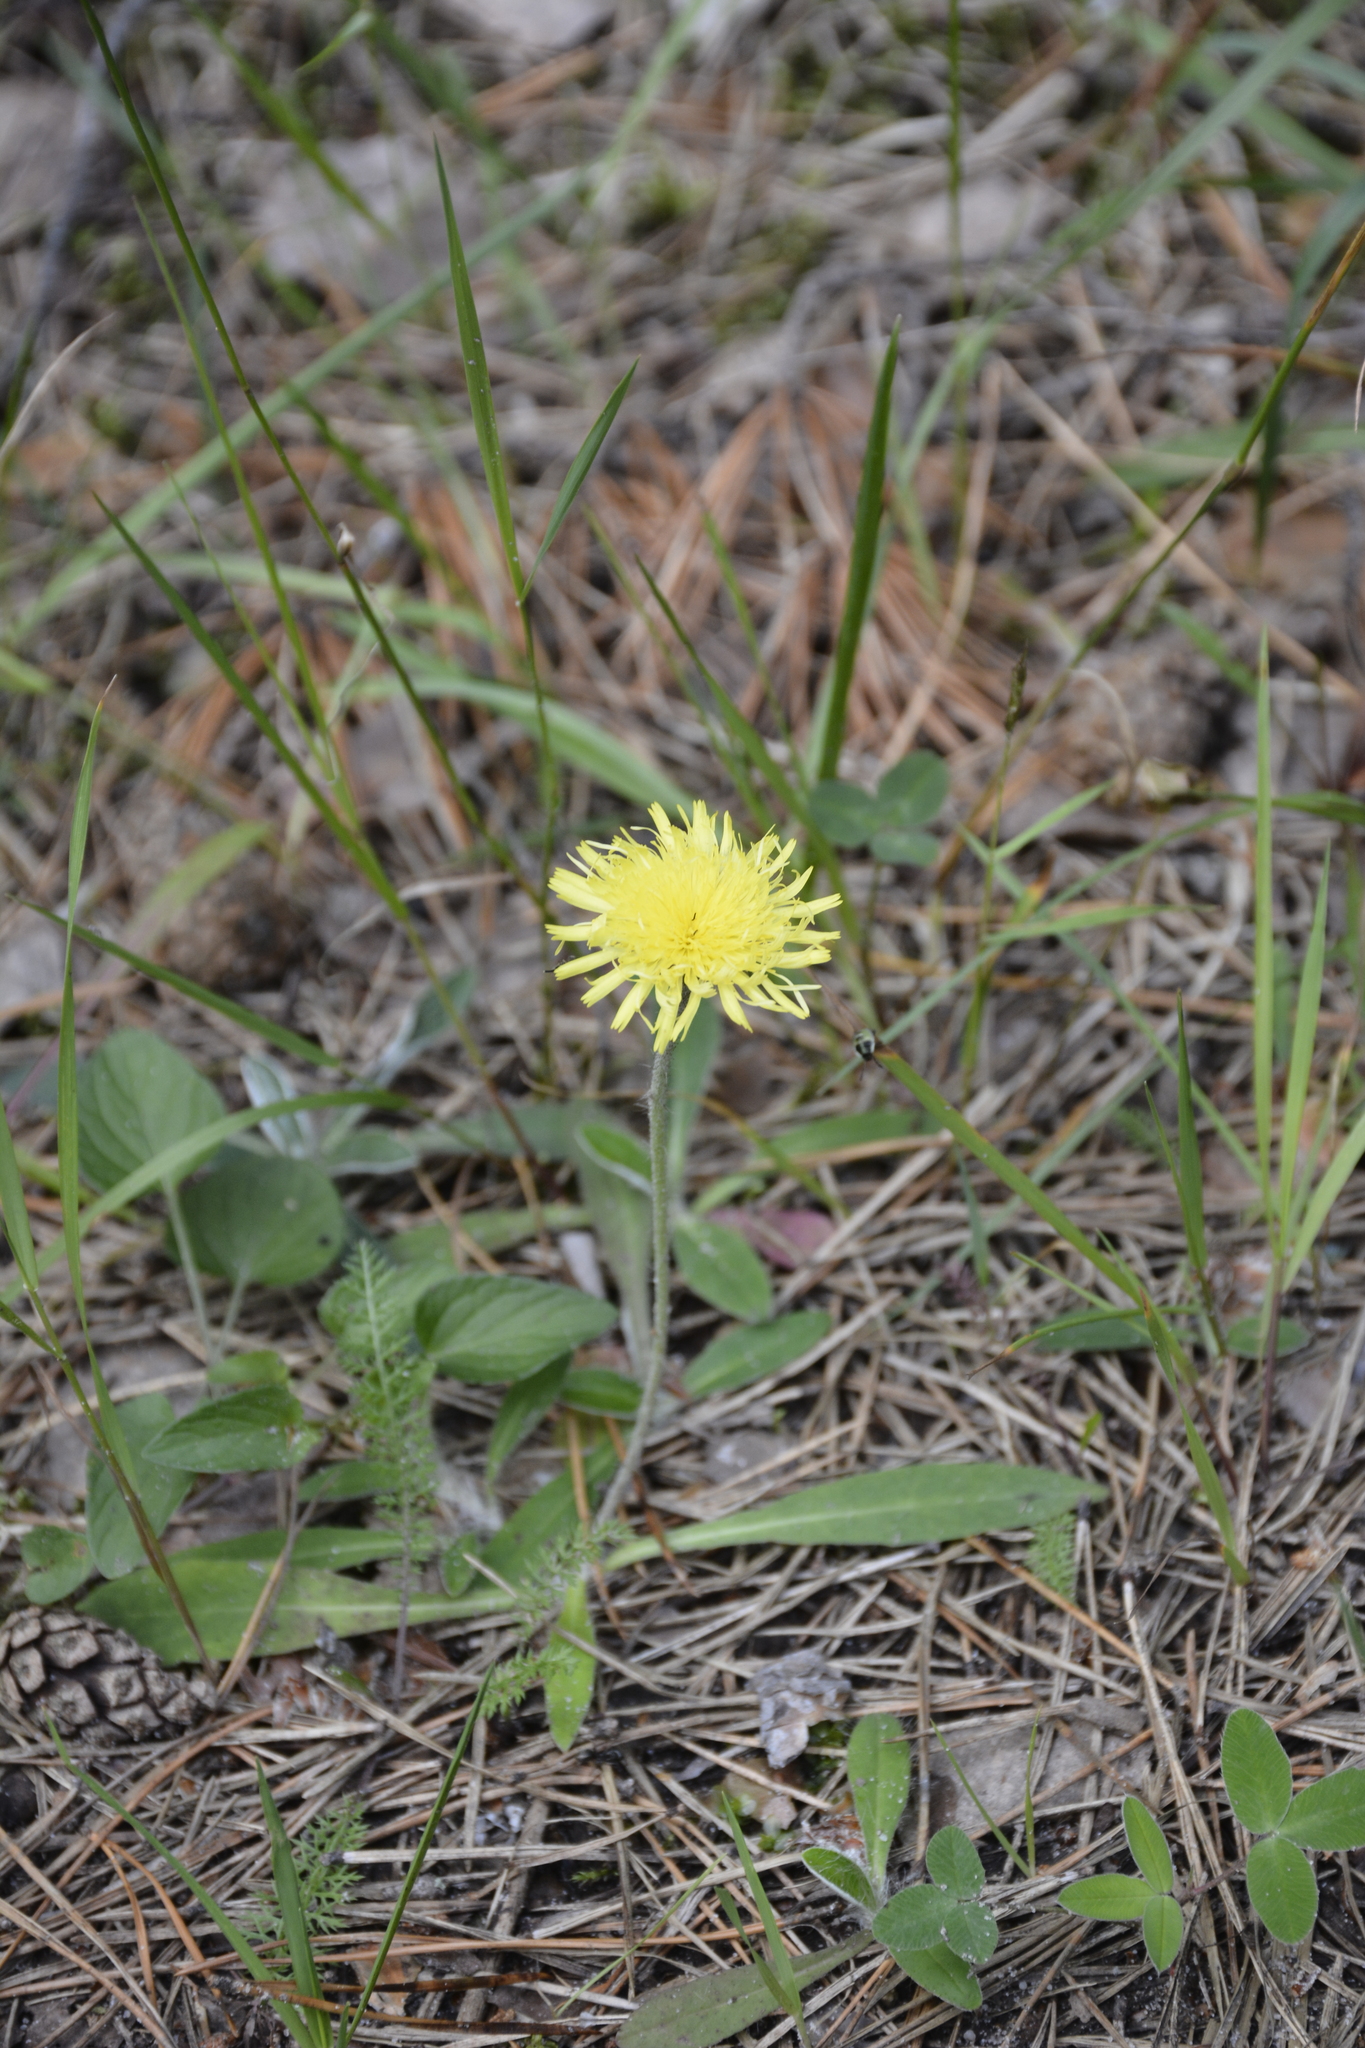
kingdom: Plantae
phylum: Tracheophyta
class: Magnoliopsida
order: Asterales
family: Asteraceae
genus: Pilosella
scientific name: Pilosella officinarum
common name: Mouse-ear hawkweed
